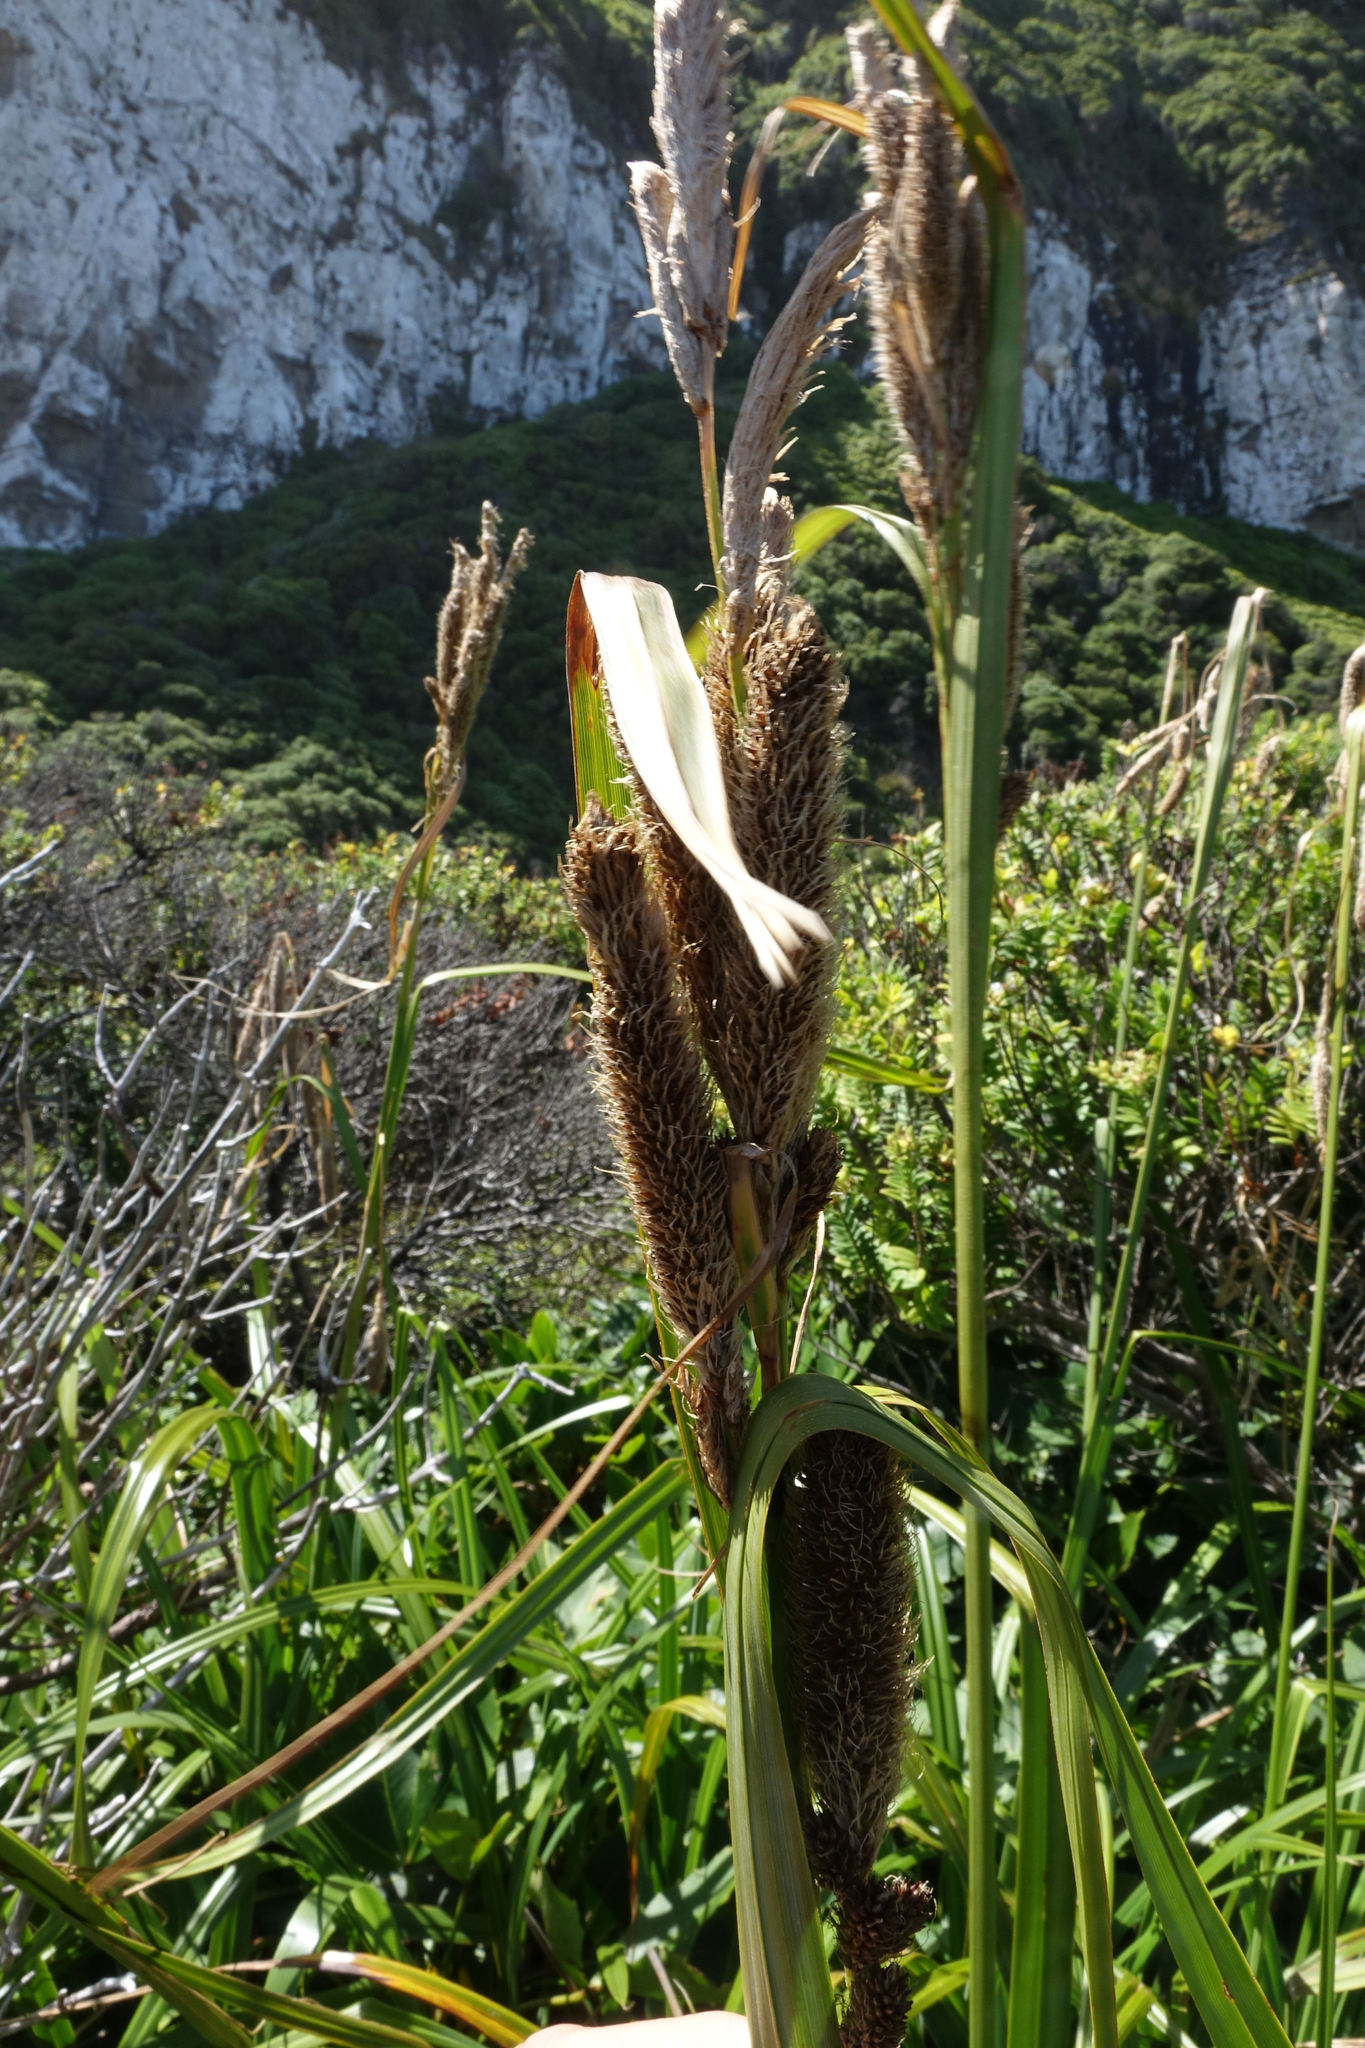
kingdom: Plantae
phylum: Tracheophyta
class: Liliopsida
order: Poales
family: Cyperaceae
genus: Carex
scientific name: Carex trifida
